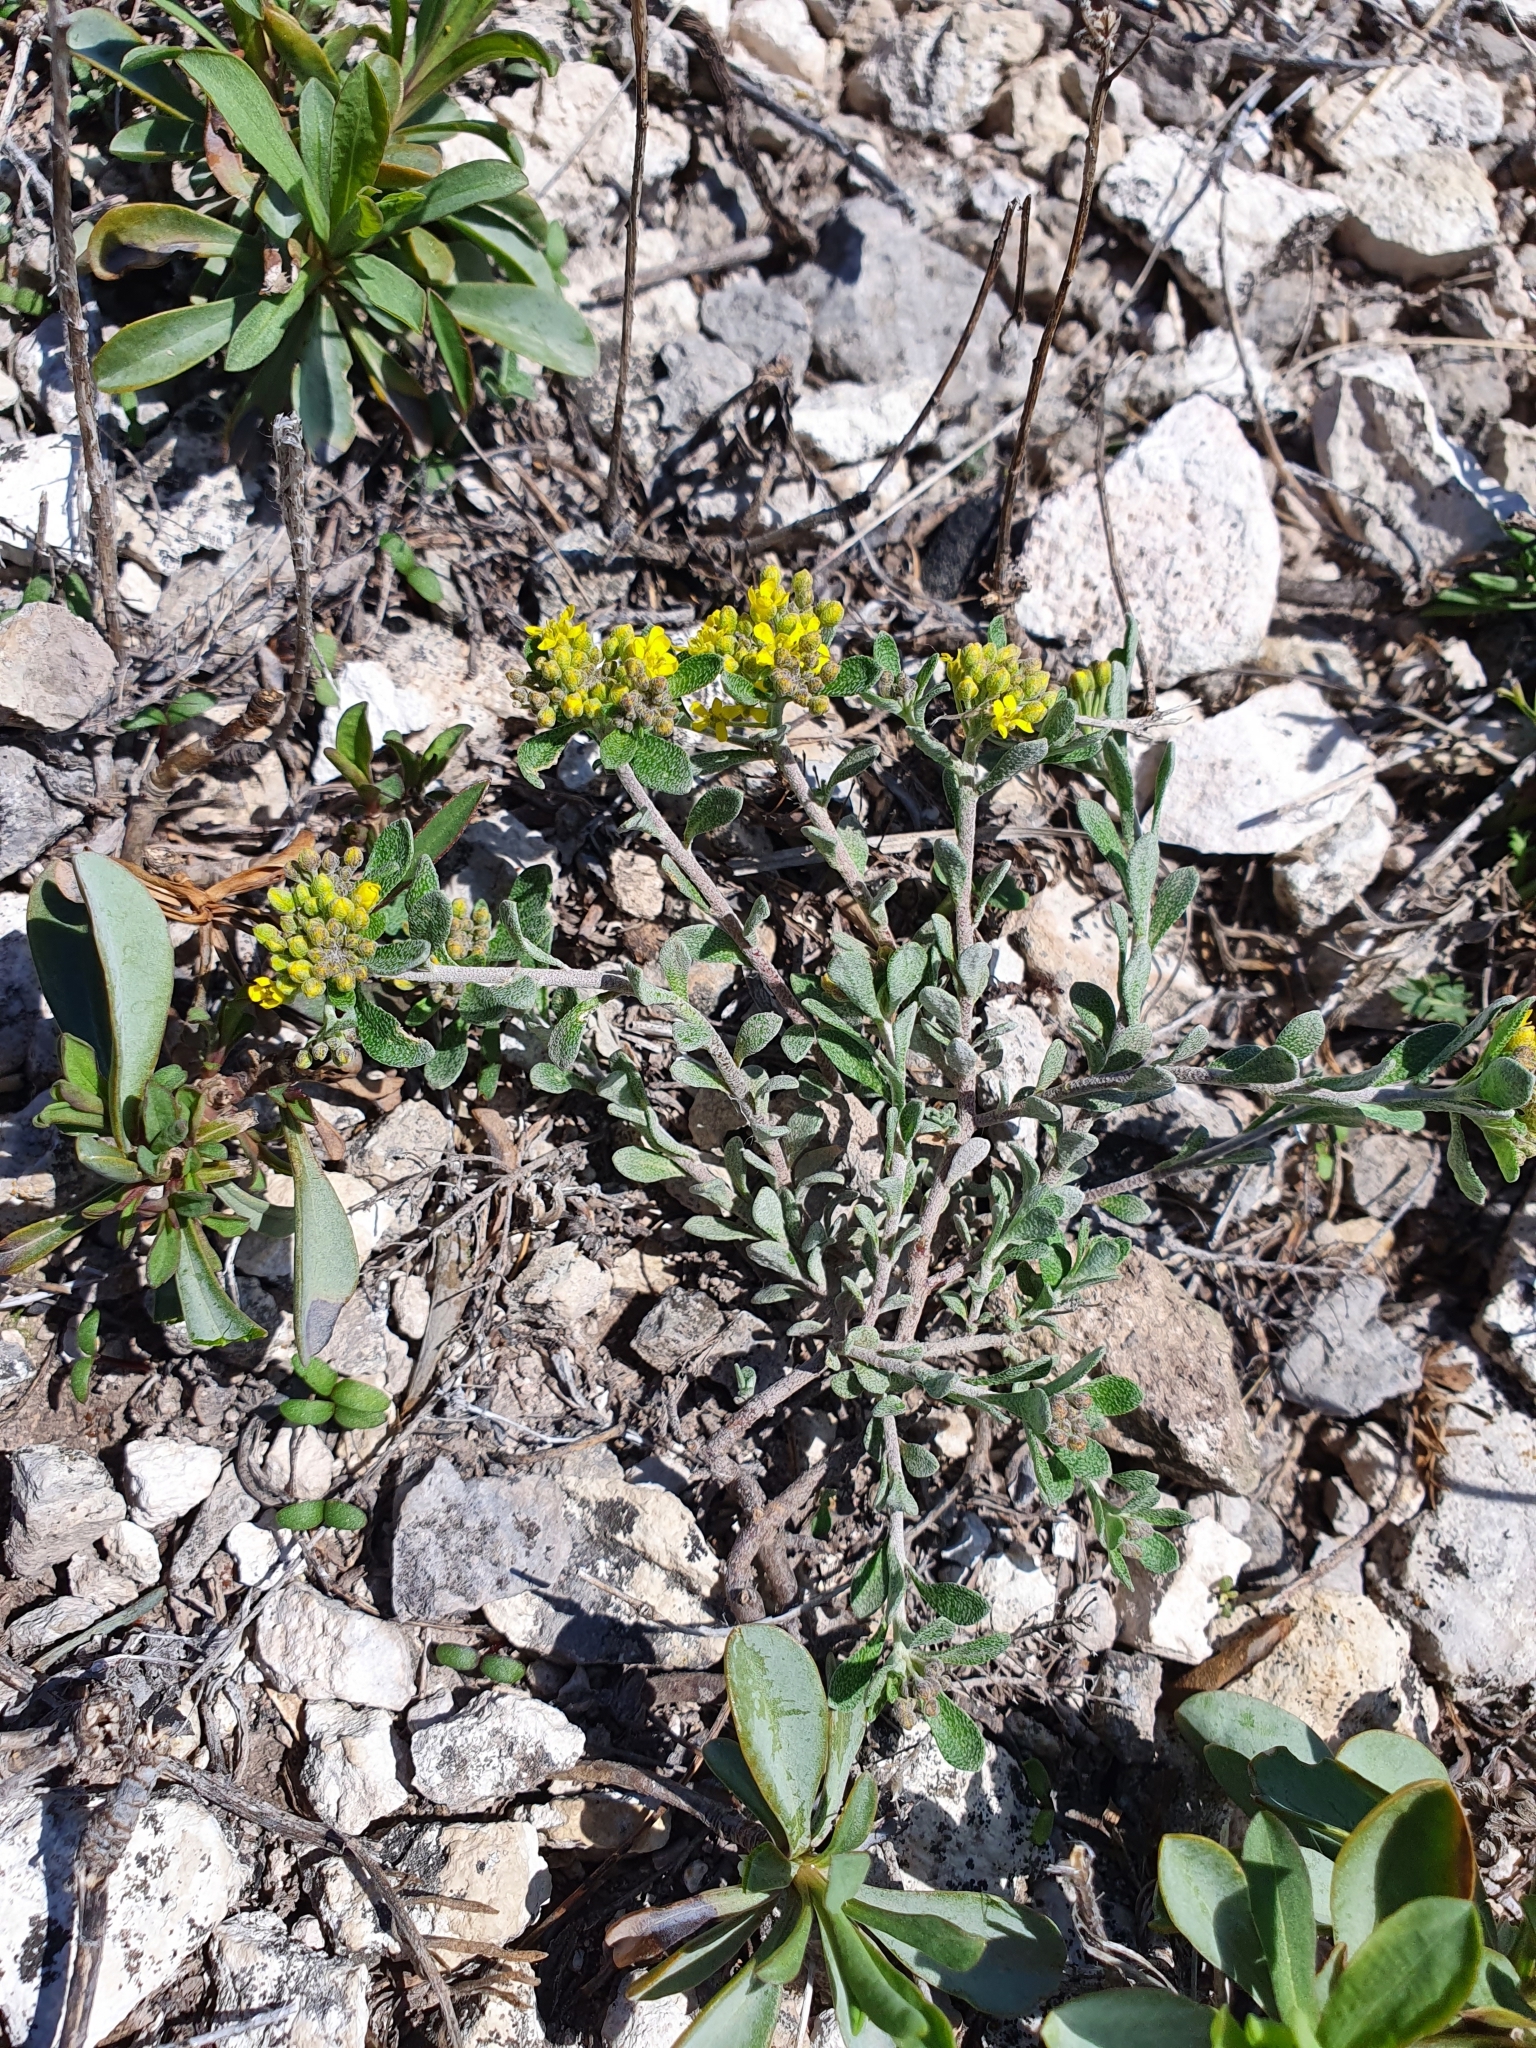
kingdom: Plantae
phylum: Tracheophyta
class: Magnoliopsida
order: Brassicales
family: Brassicaceae
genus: Odontarrhena
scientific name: Odontarrhena tortuosa
